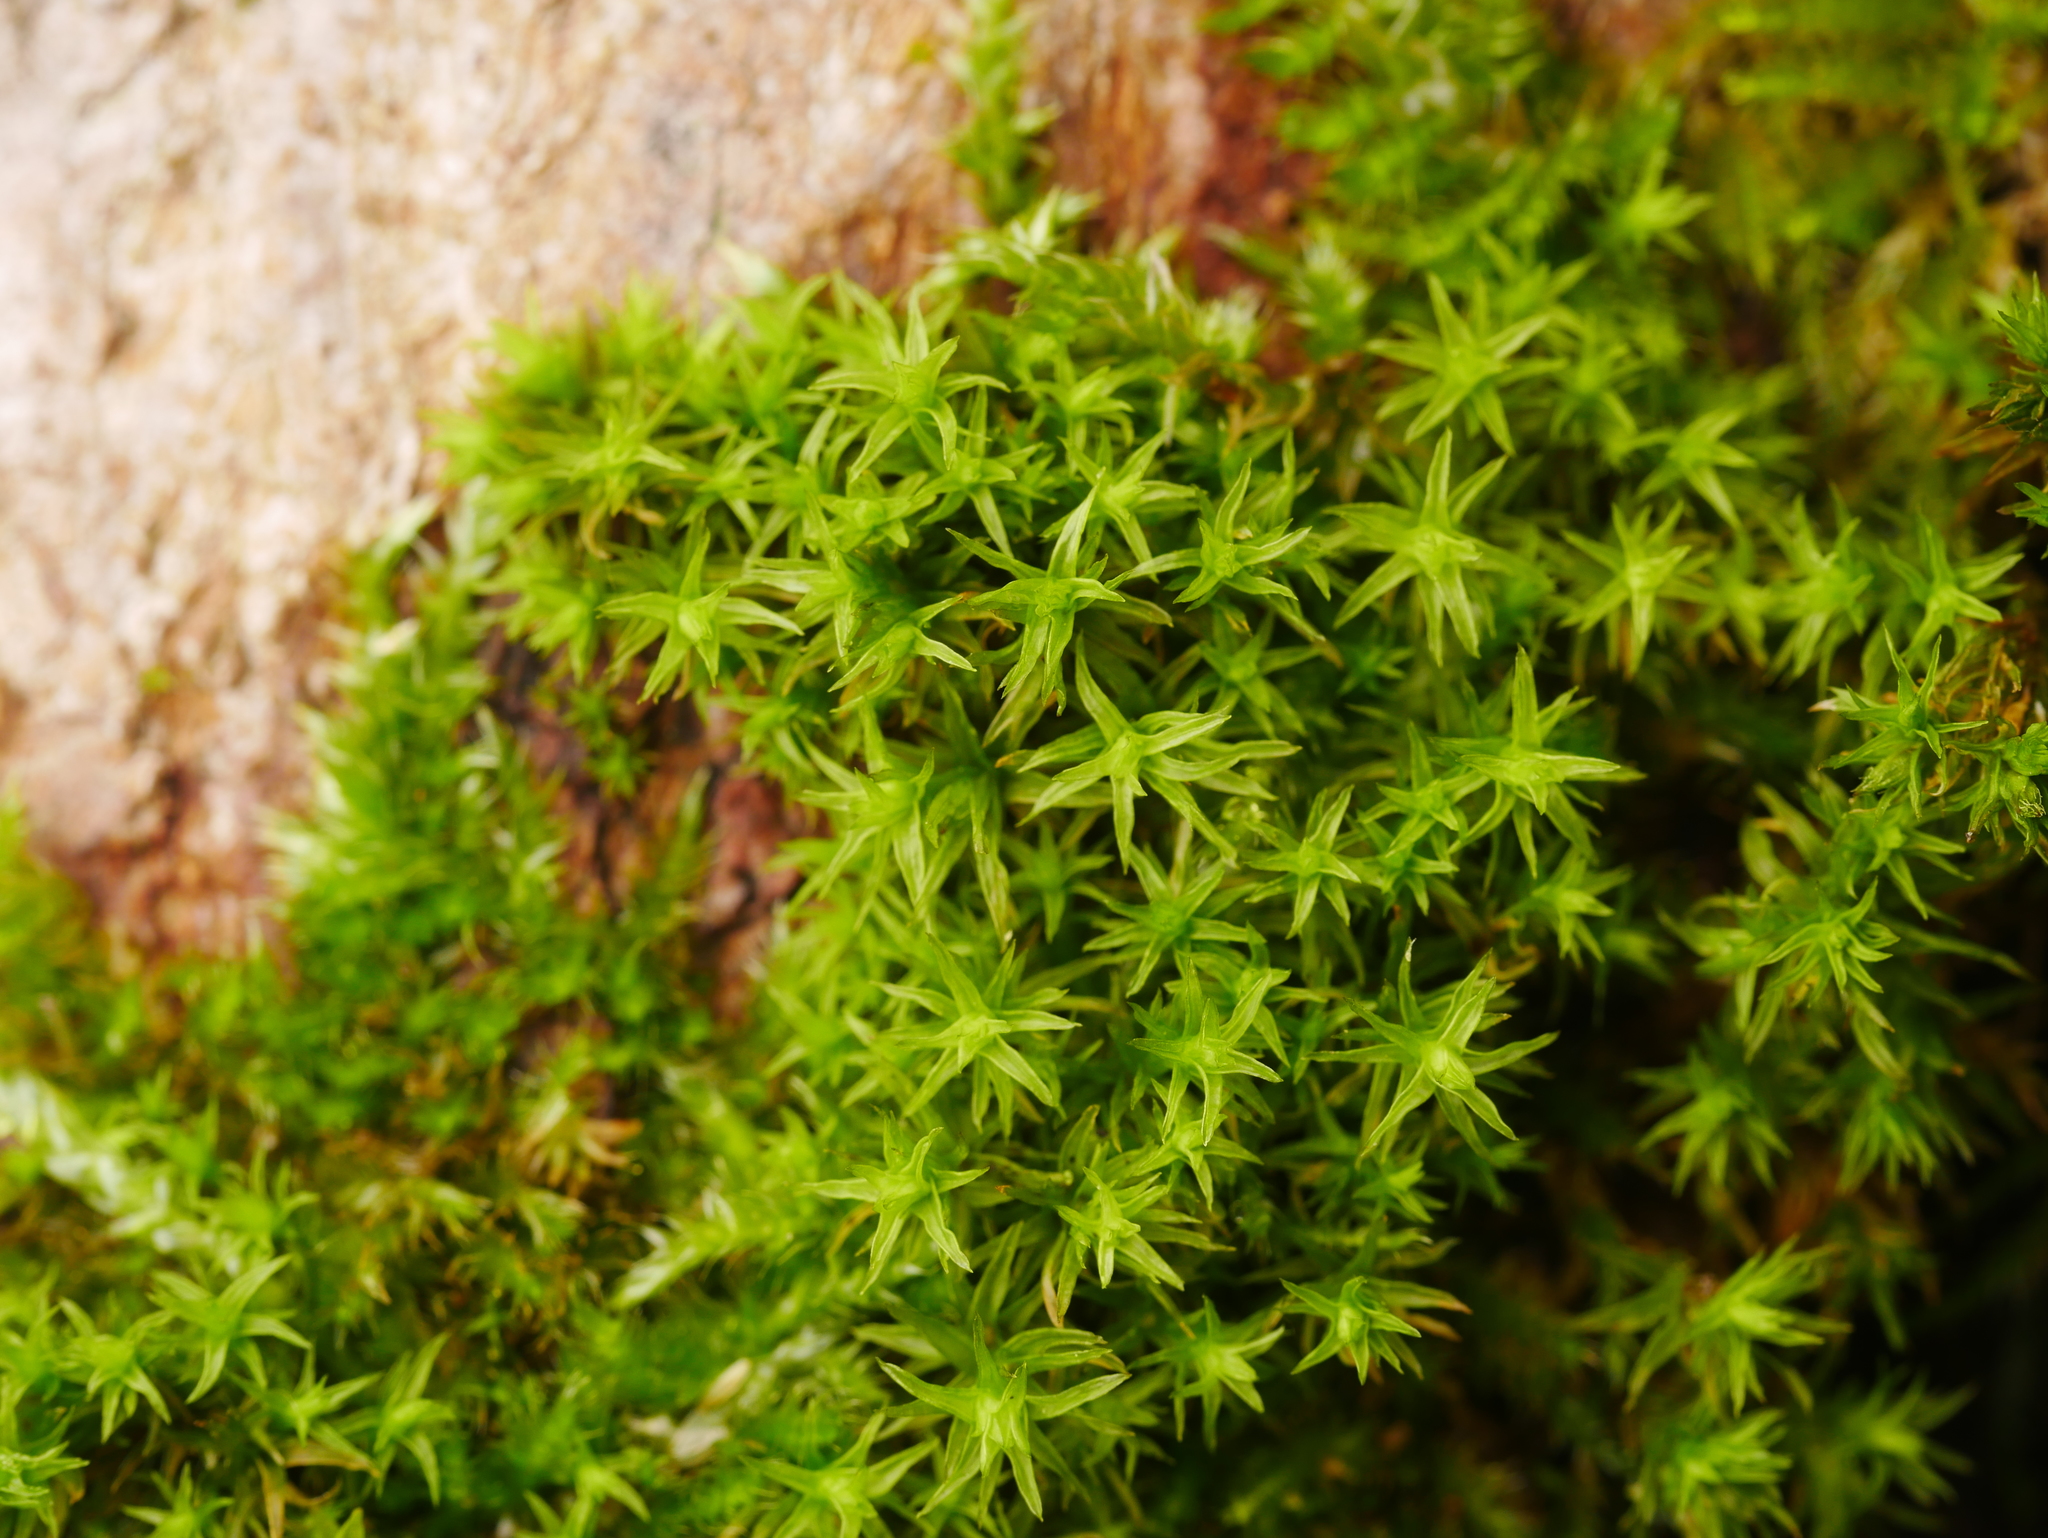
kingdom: Plantae
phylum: Bryophyta
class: Bryopsida
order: Orthotrichales
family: Orthotrichaceae
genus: Lewinskya
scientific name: Lewinskya affinis
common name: Wood bristle-moss
